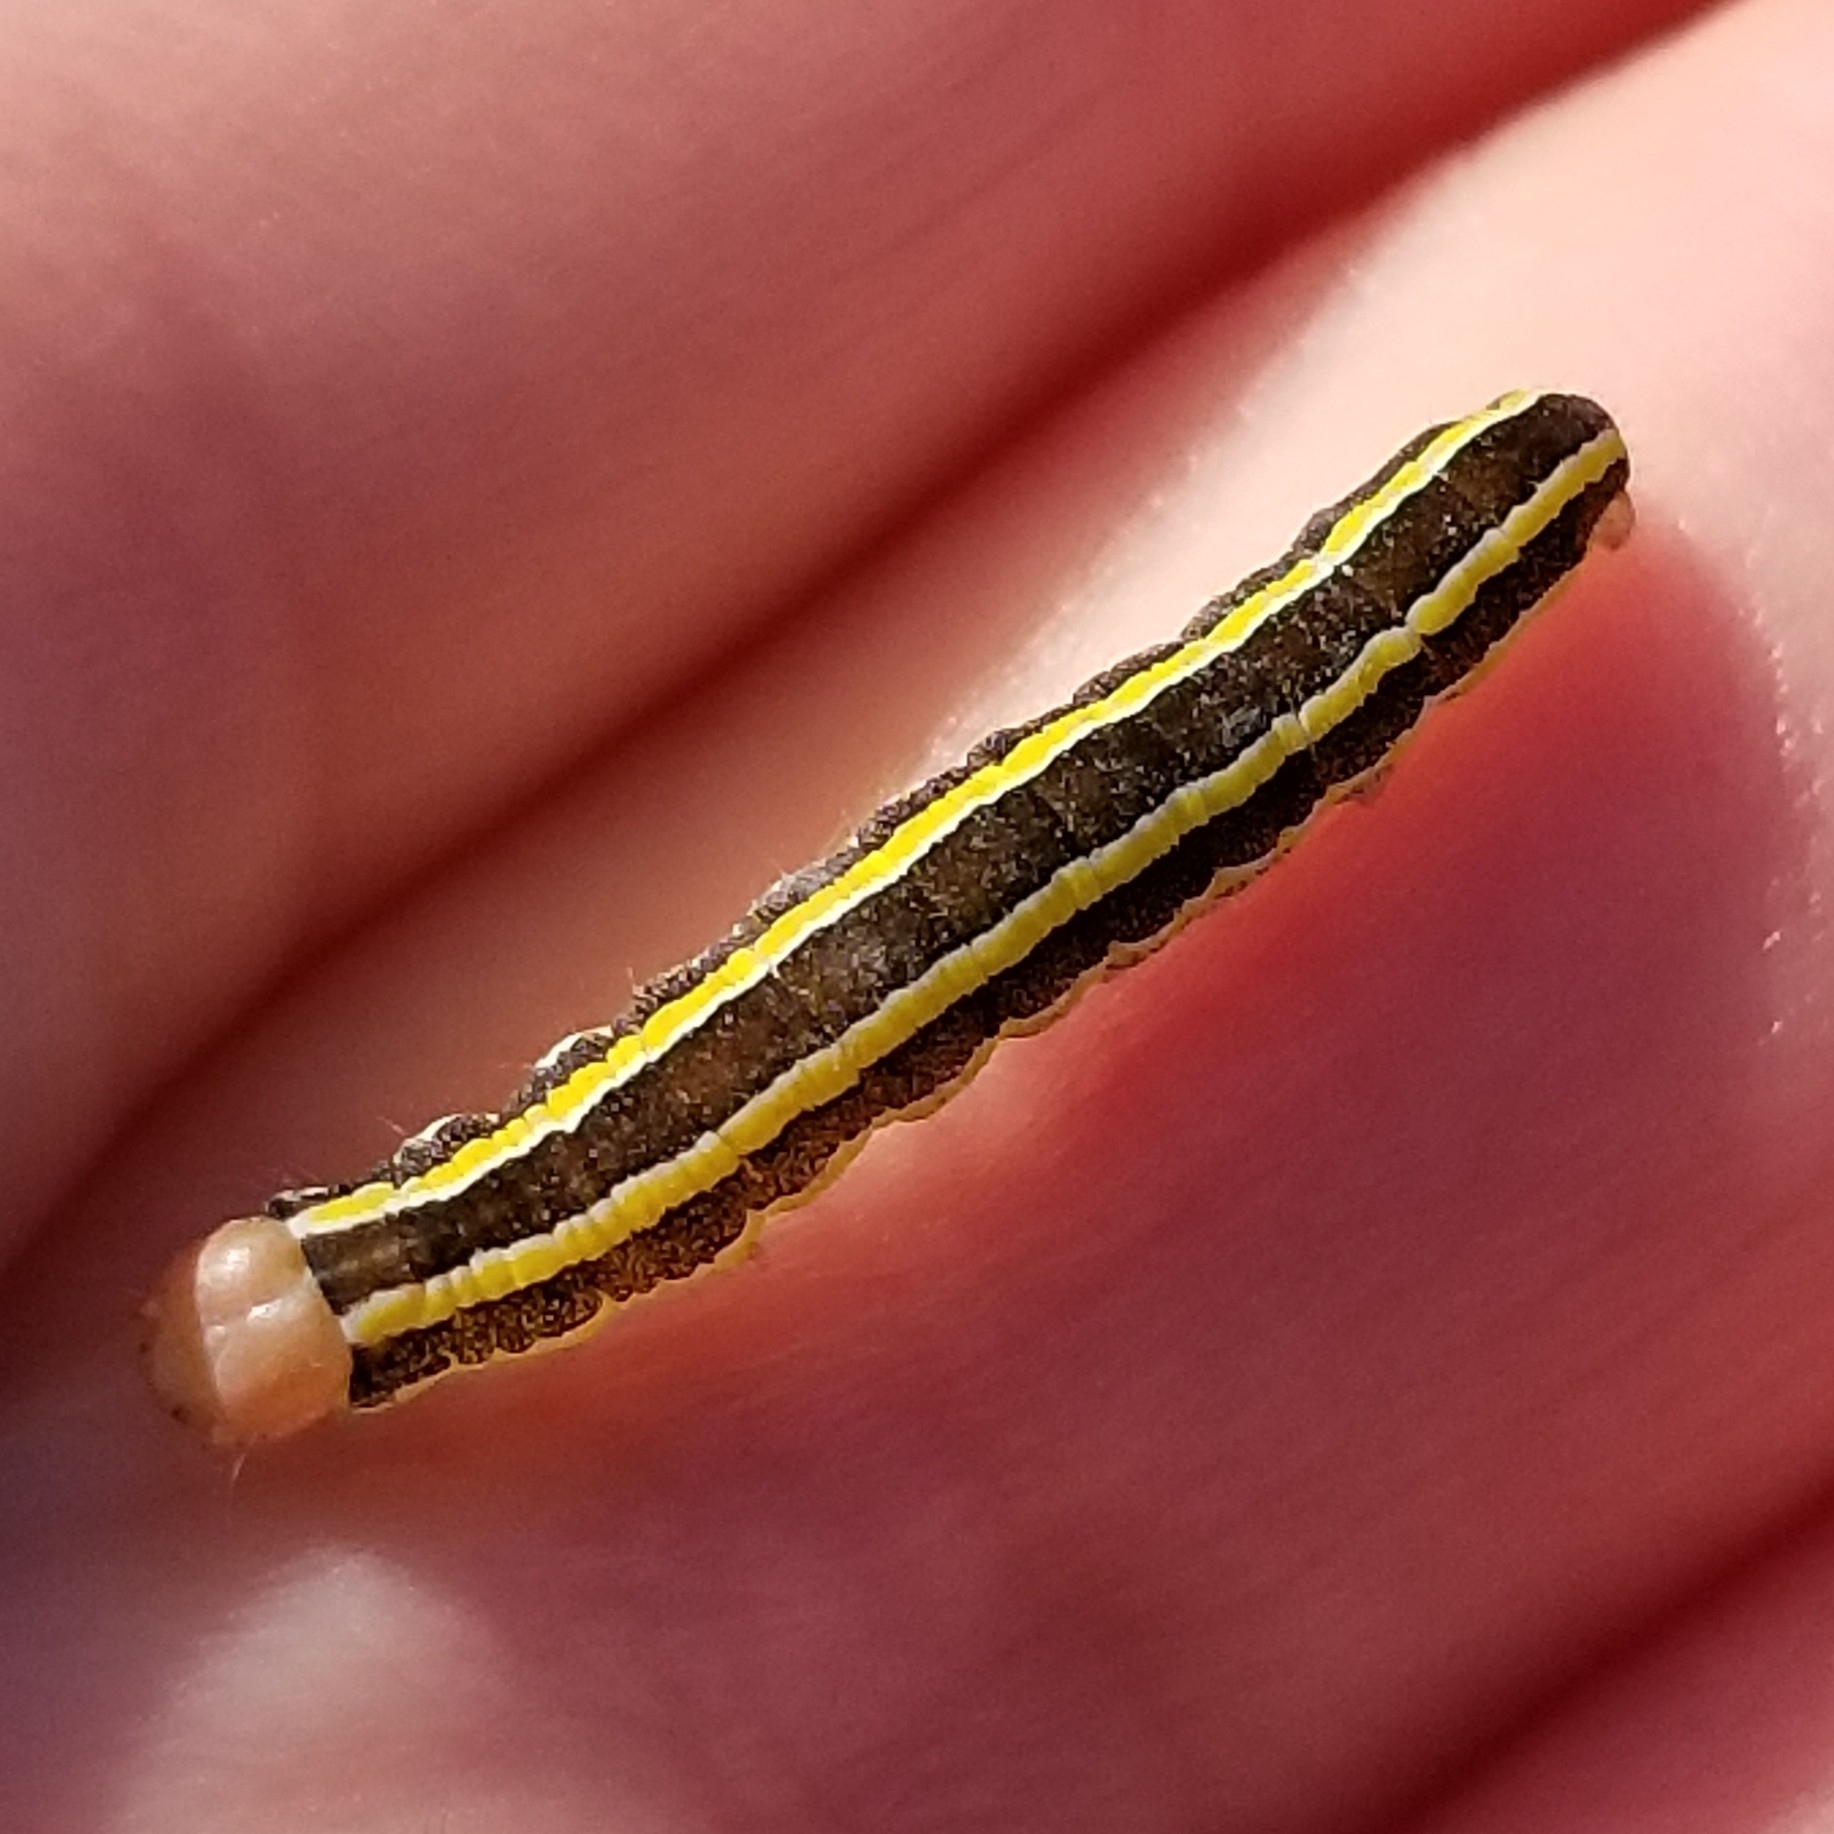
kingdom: Animalia
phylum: Arthropoda
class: Insecta
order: Lepidoptera
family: Noctuidae
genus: Ceramica
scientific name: Ceramica pisi
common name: Broom moth
